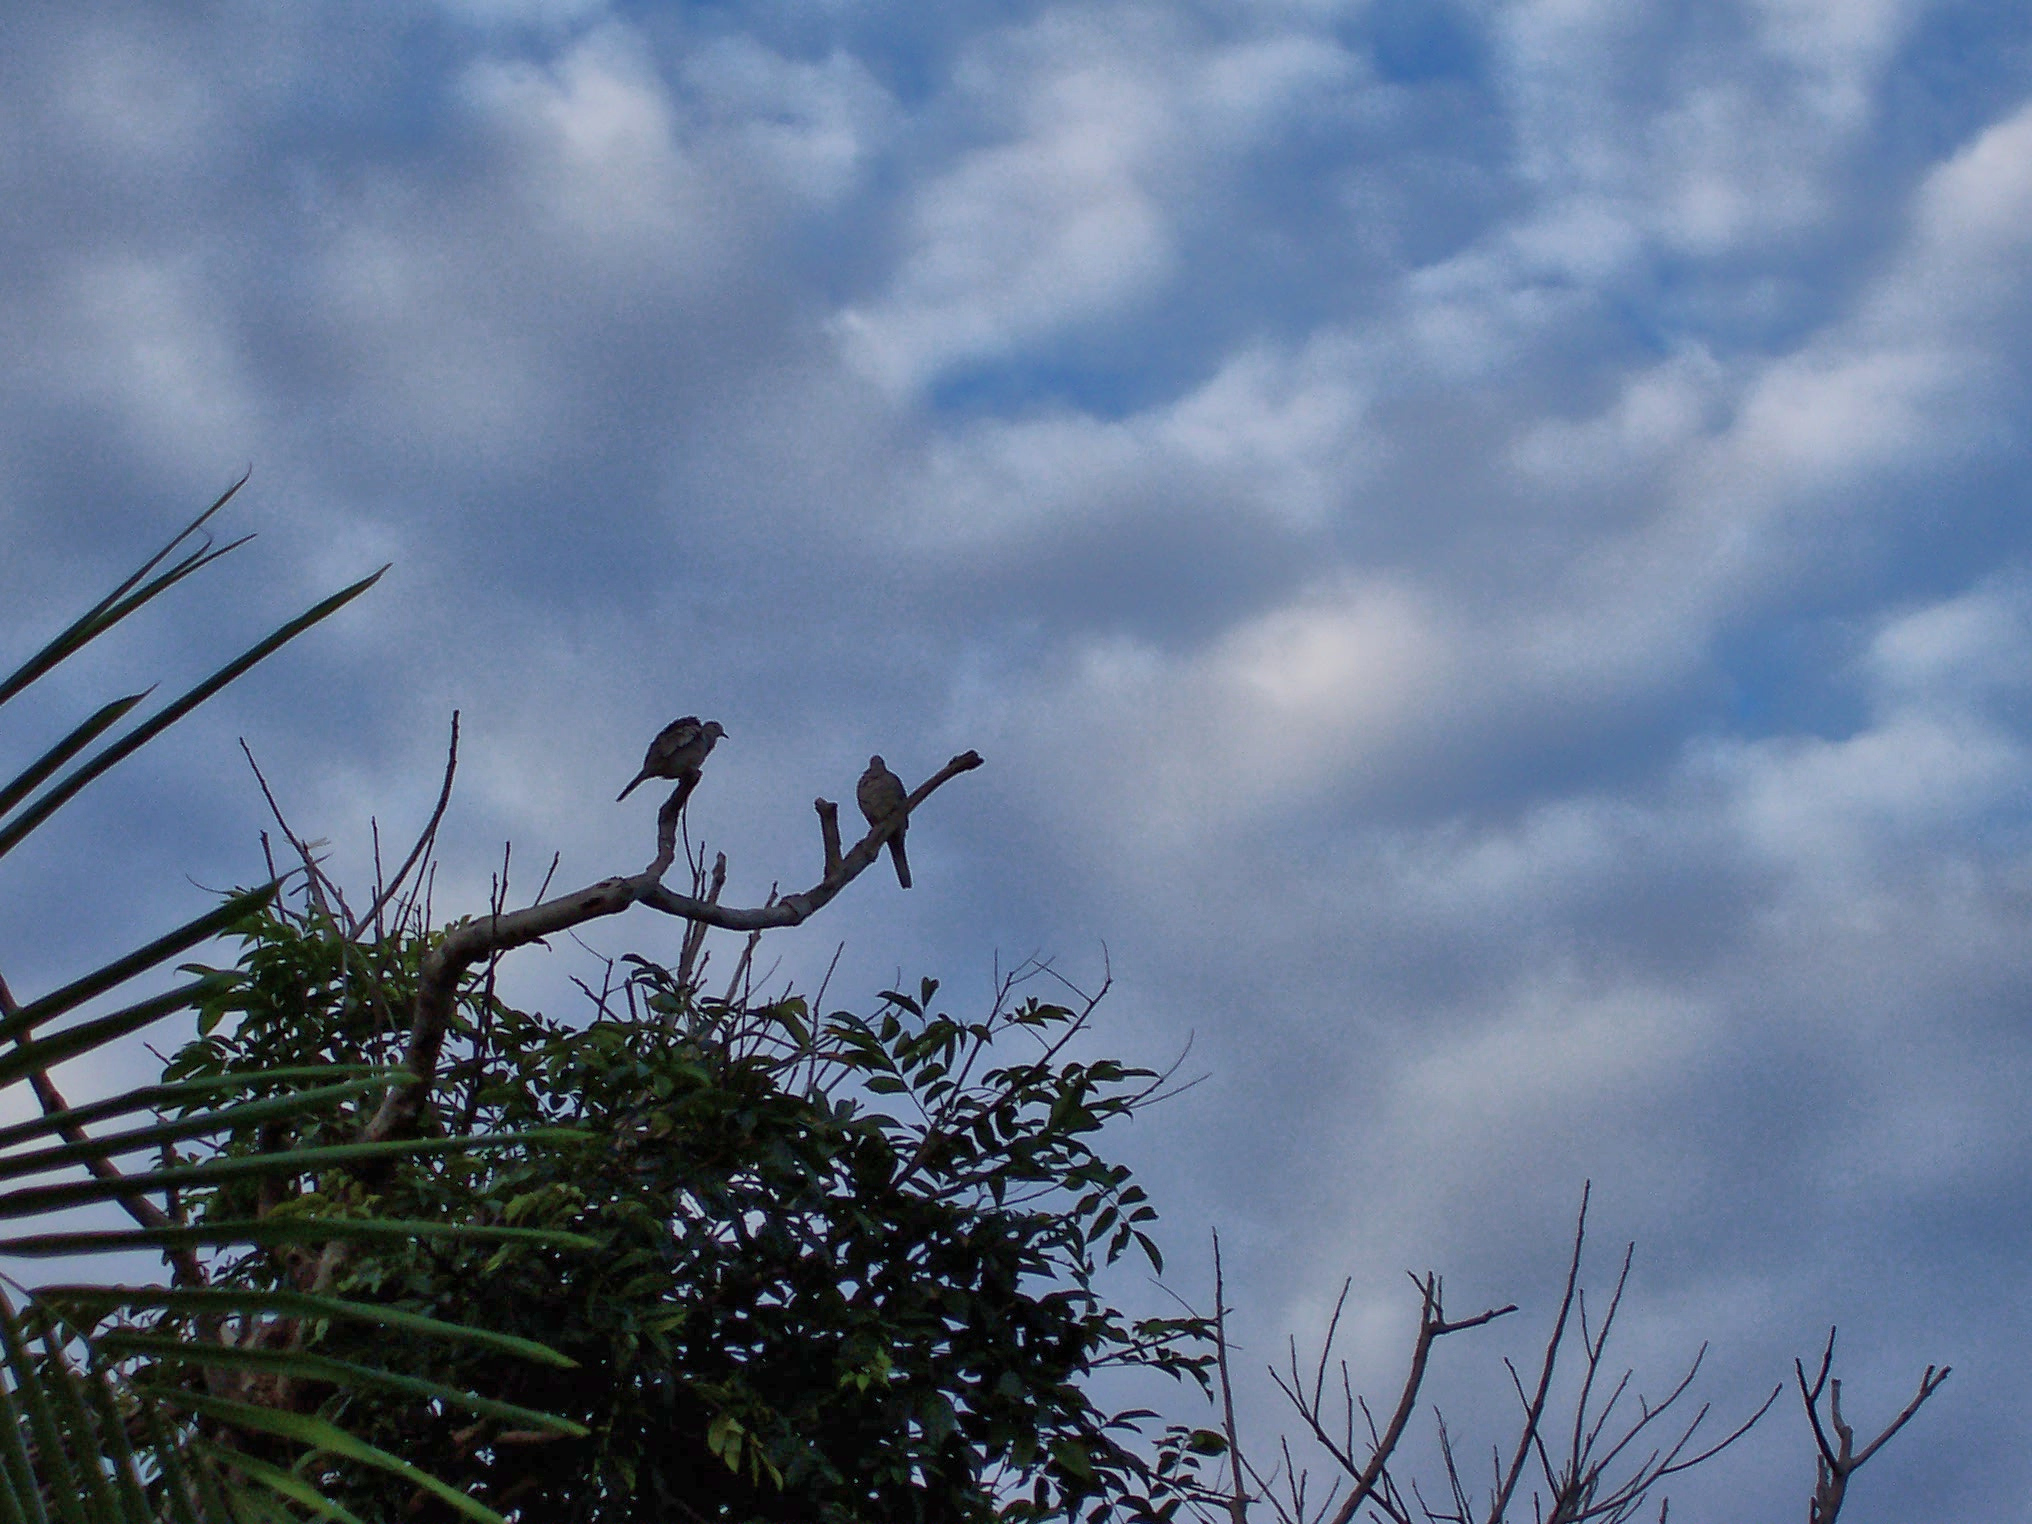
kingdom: Animalia
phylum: Chordata
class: Aves
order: Columbiformes
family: Columbidae
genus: Zenaida
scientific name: Zenaida asiatica
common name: White-winged dove
